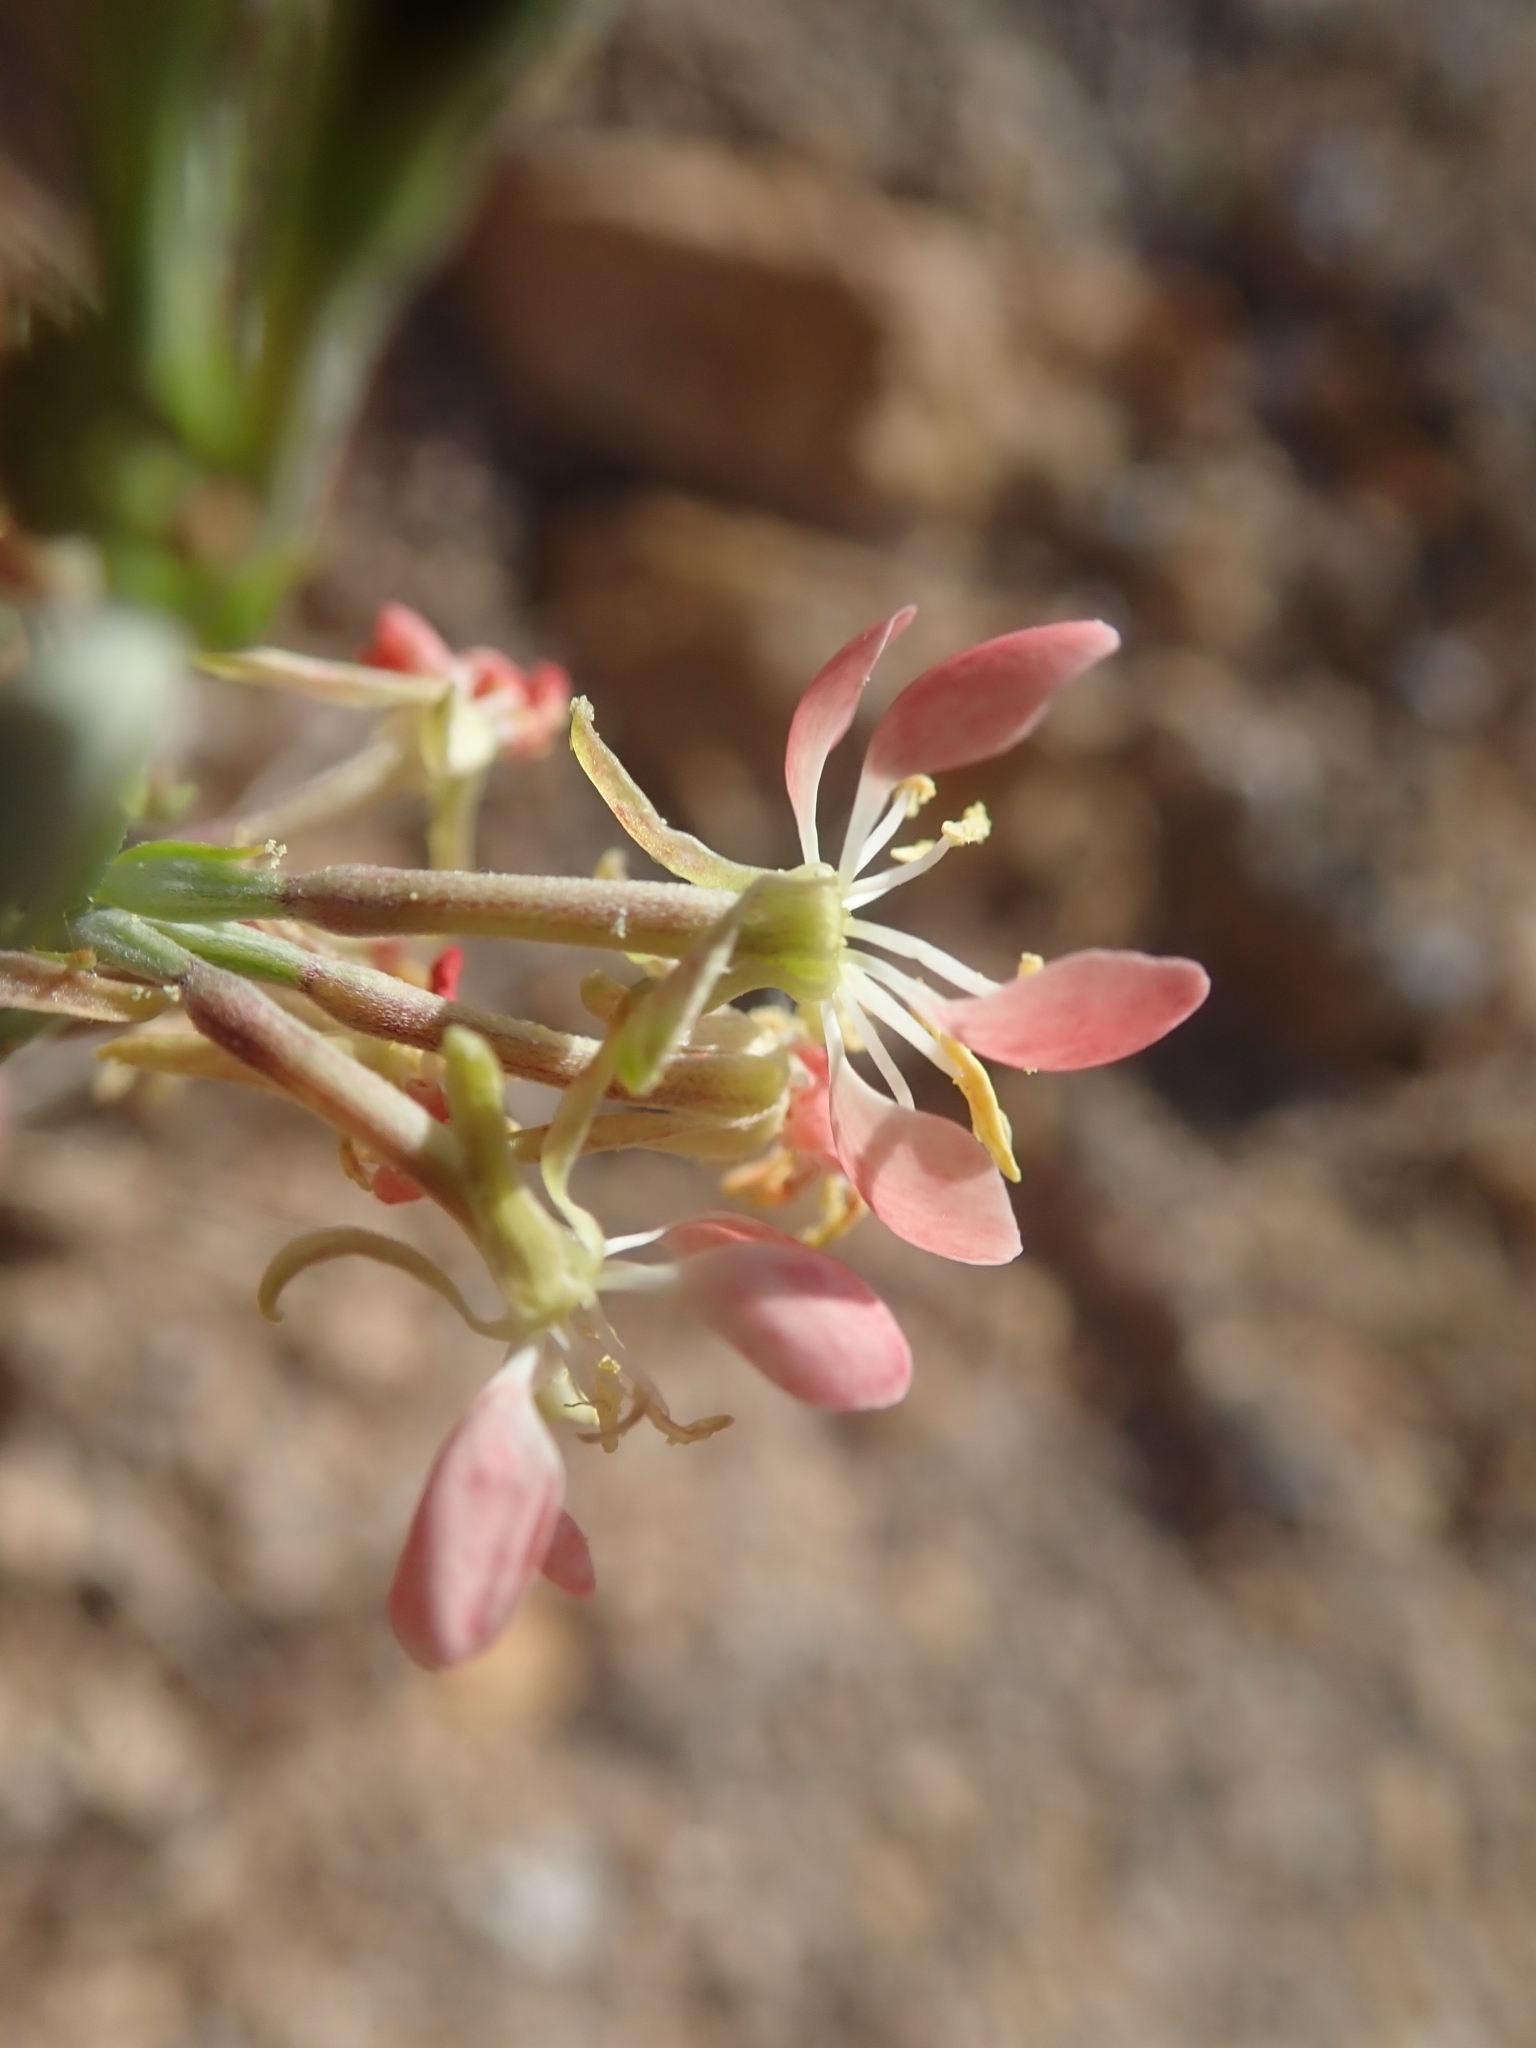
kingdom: Plantae
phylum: Tracheophyta
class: Magnoliopsida
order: Myrtales
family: Onagraceae
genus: Oenothera
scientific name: Oenothera suffrutescens
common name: Scarlet beeblossom
